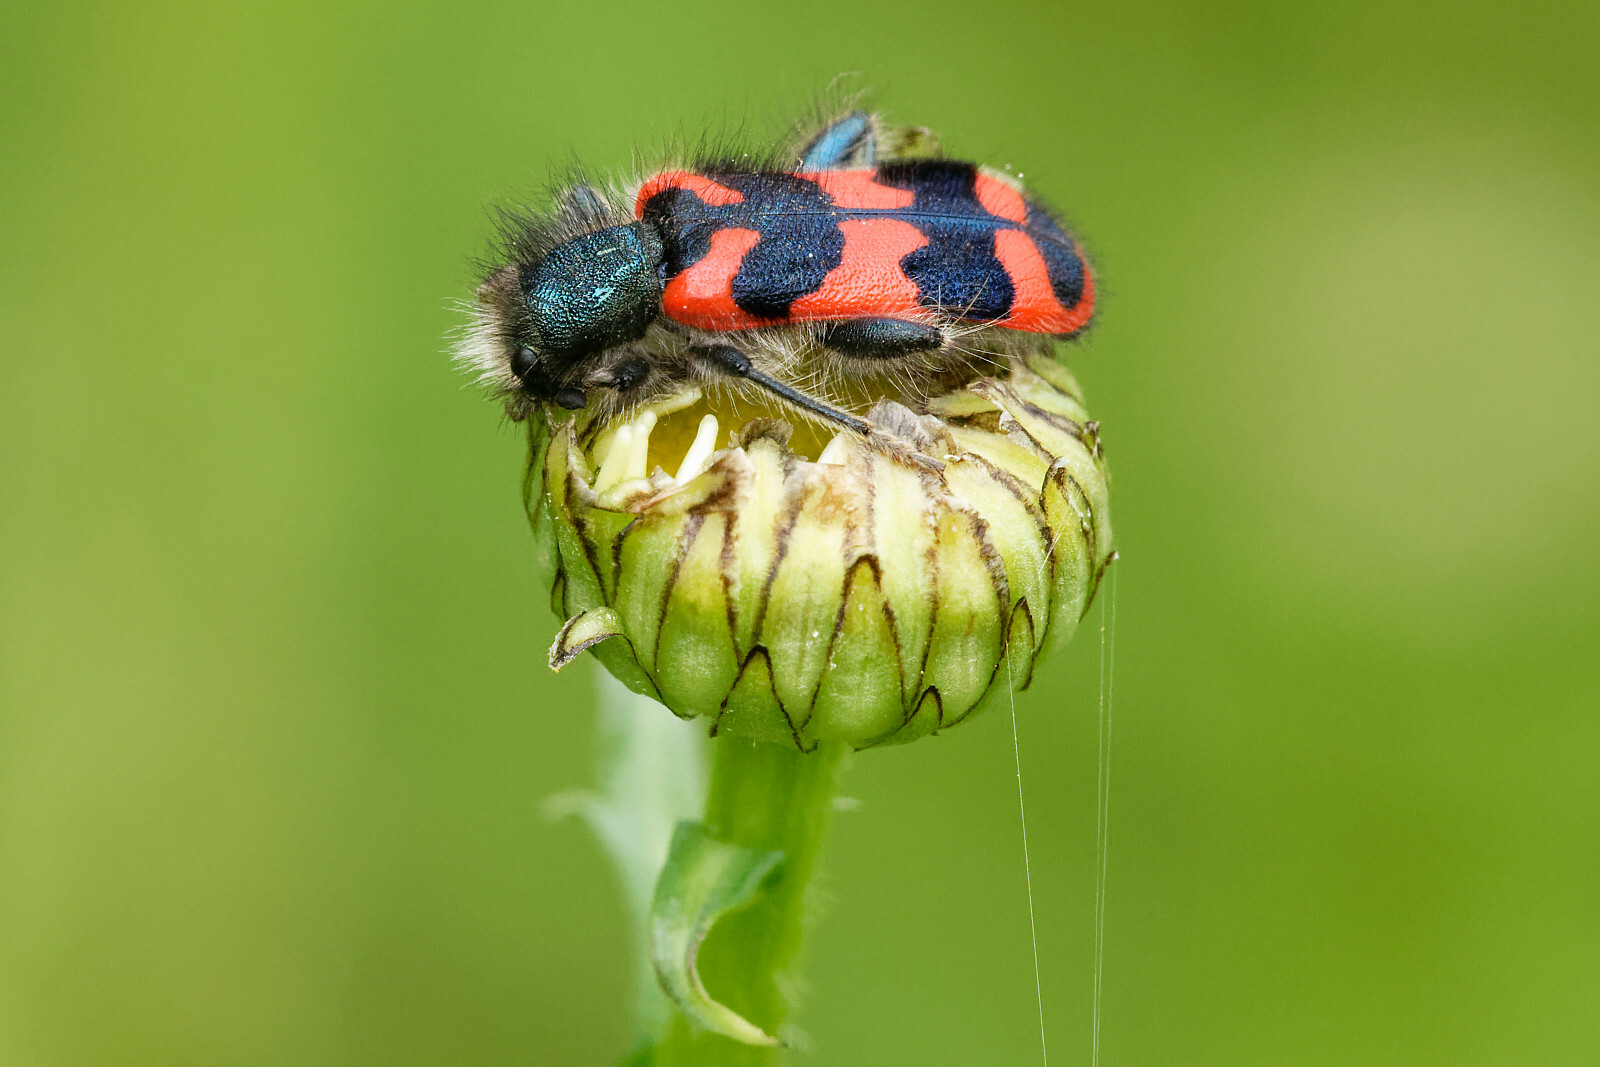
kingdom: Animalia
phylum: Arthropoda
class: Insecta
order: Coleoptera
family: Cleridae
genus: Trichodes
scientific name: Trichodes alvearius
